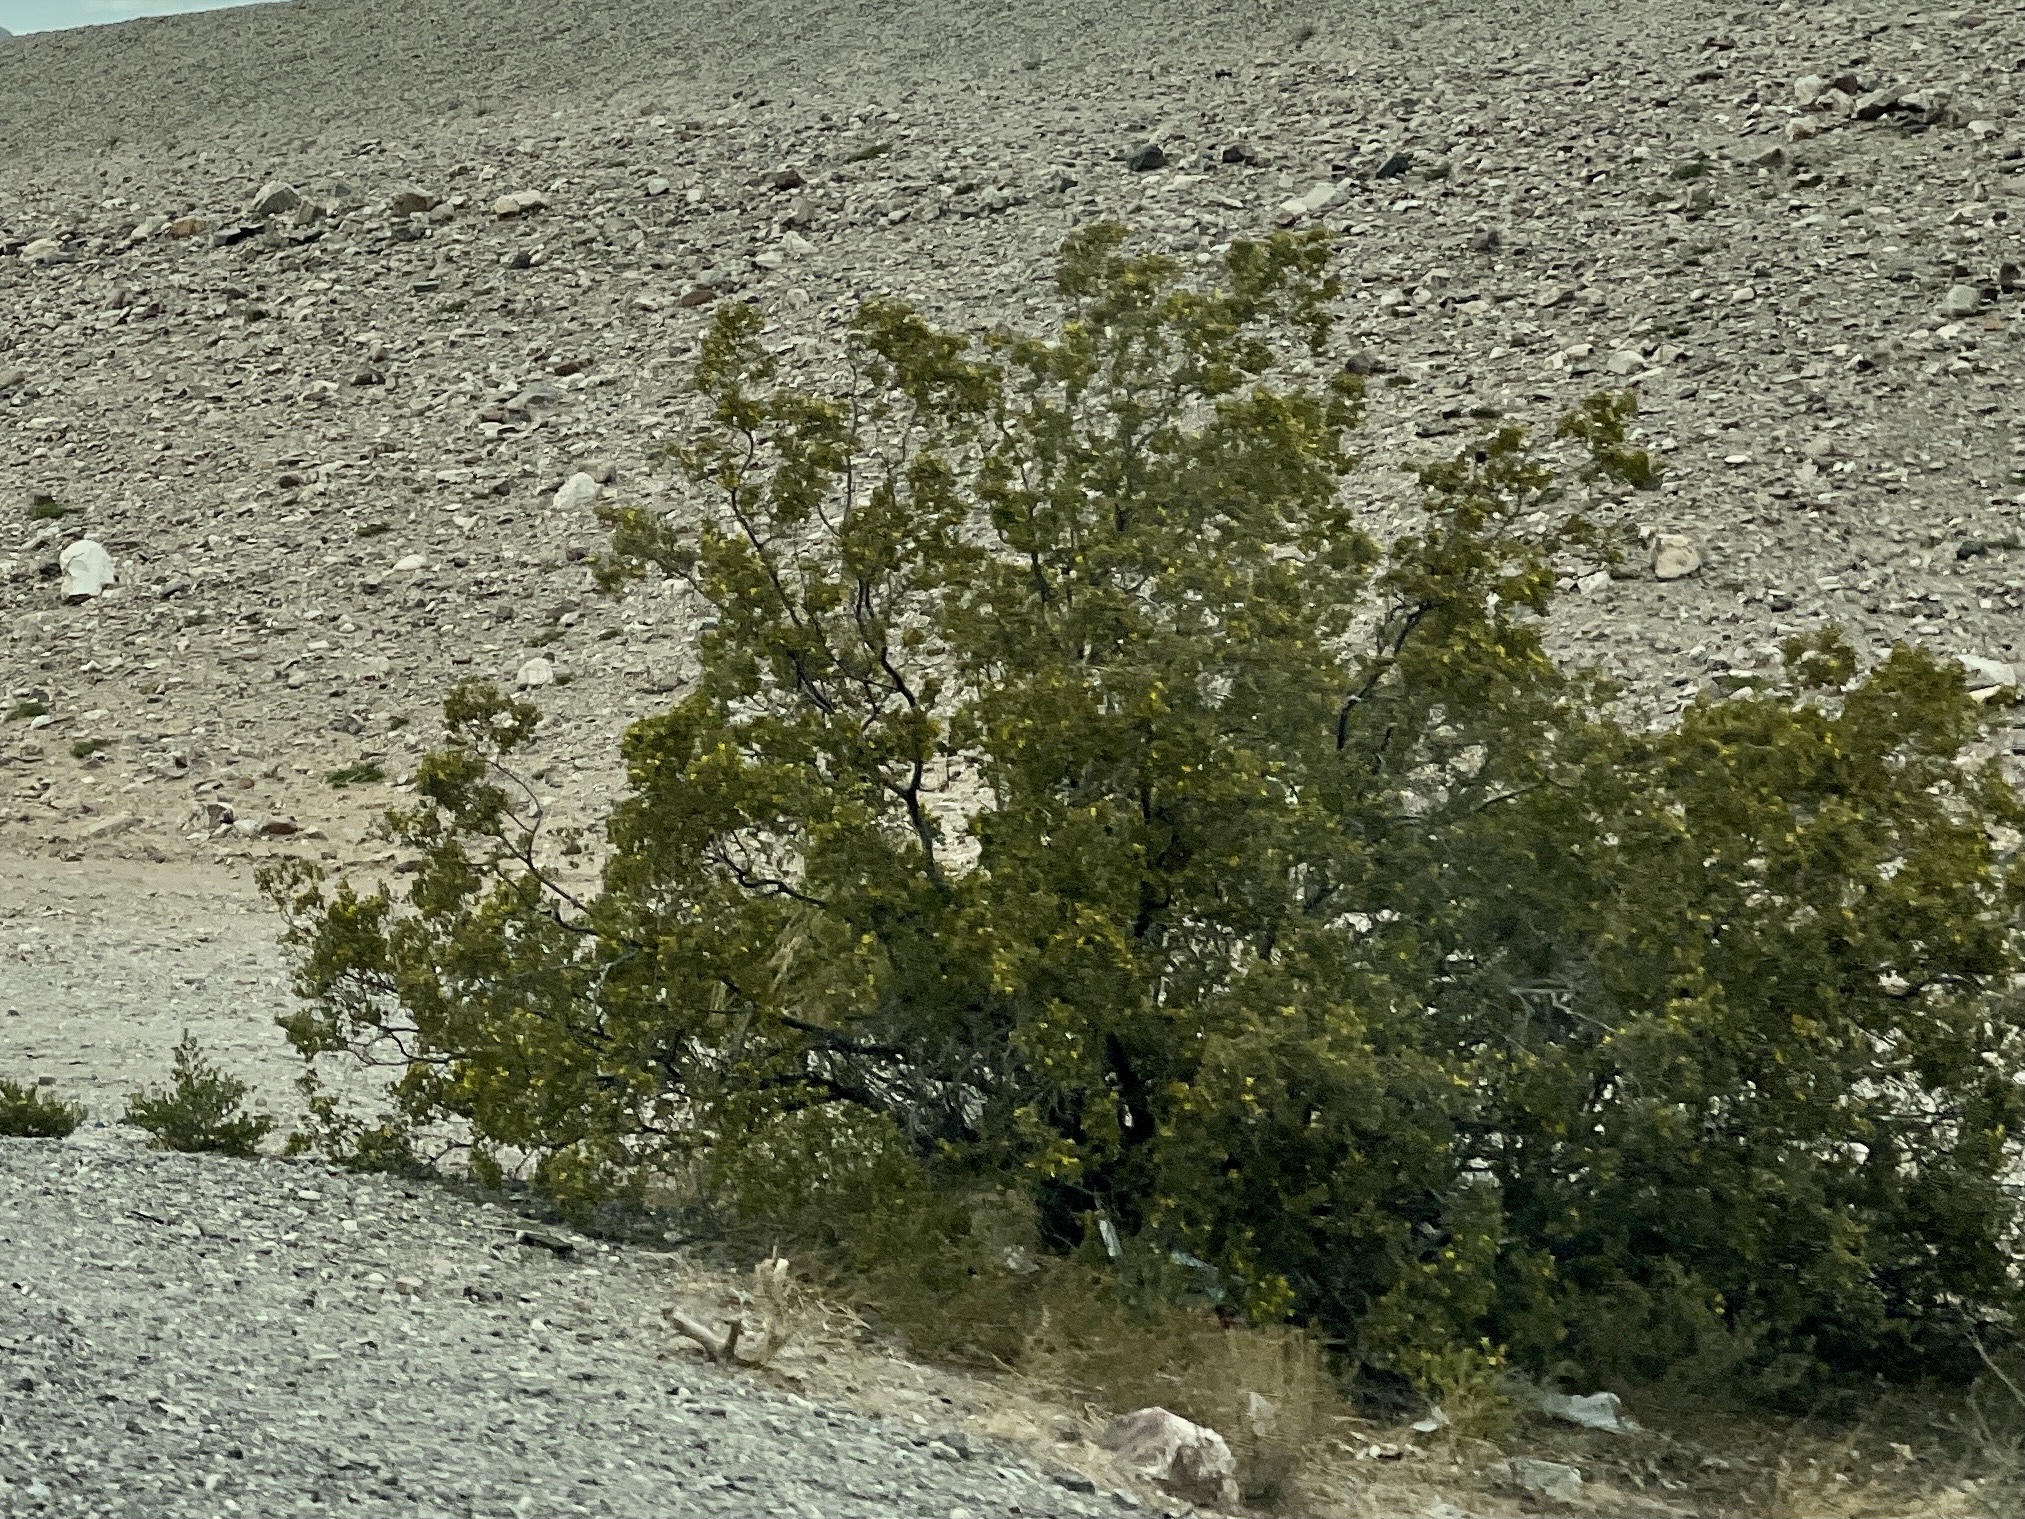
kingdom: Plantae
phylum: Tracheophyta
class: Magnoliopsida
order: Zygophyllales
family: Zygophyllaceae
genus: Larrea
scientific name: Larrea tridentata
